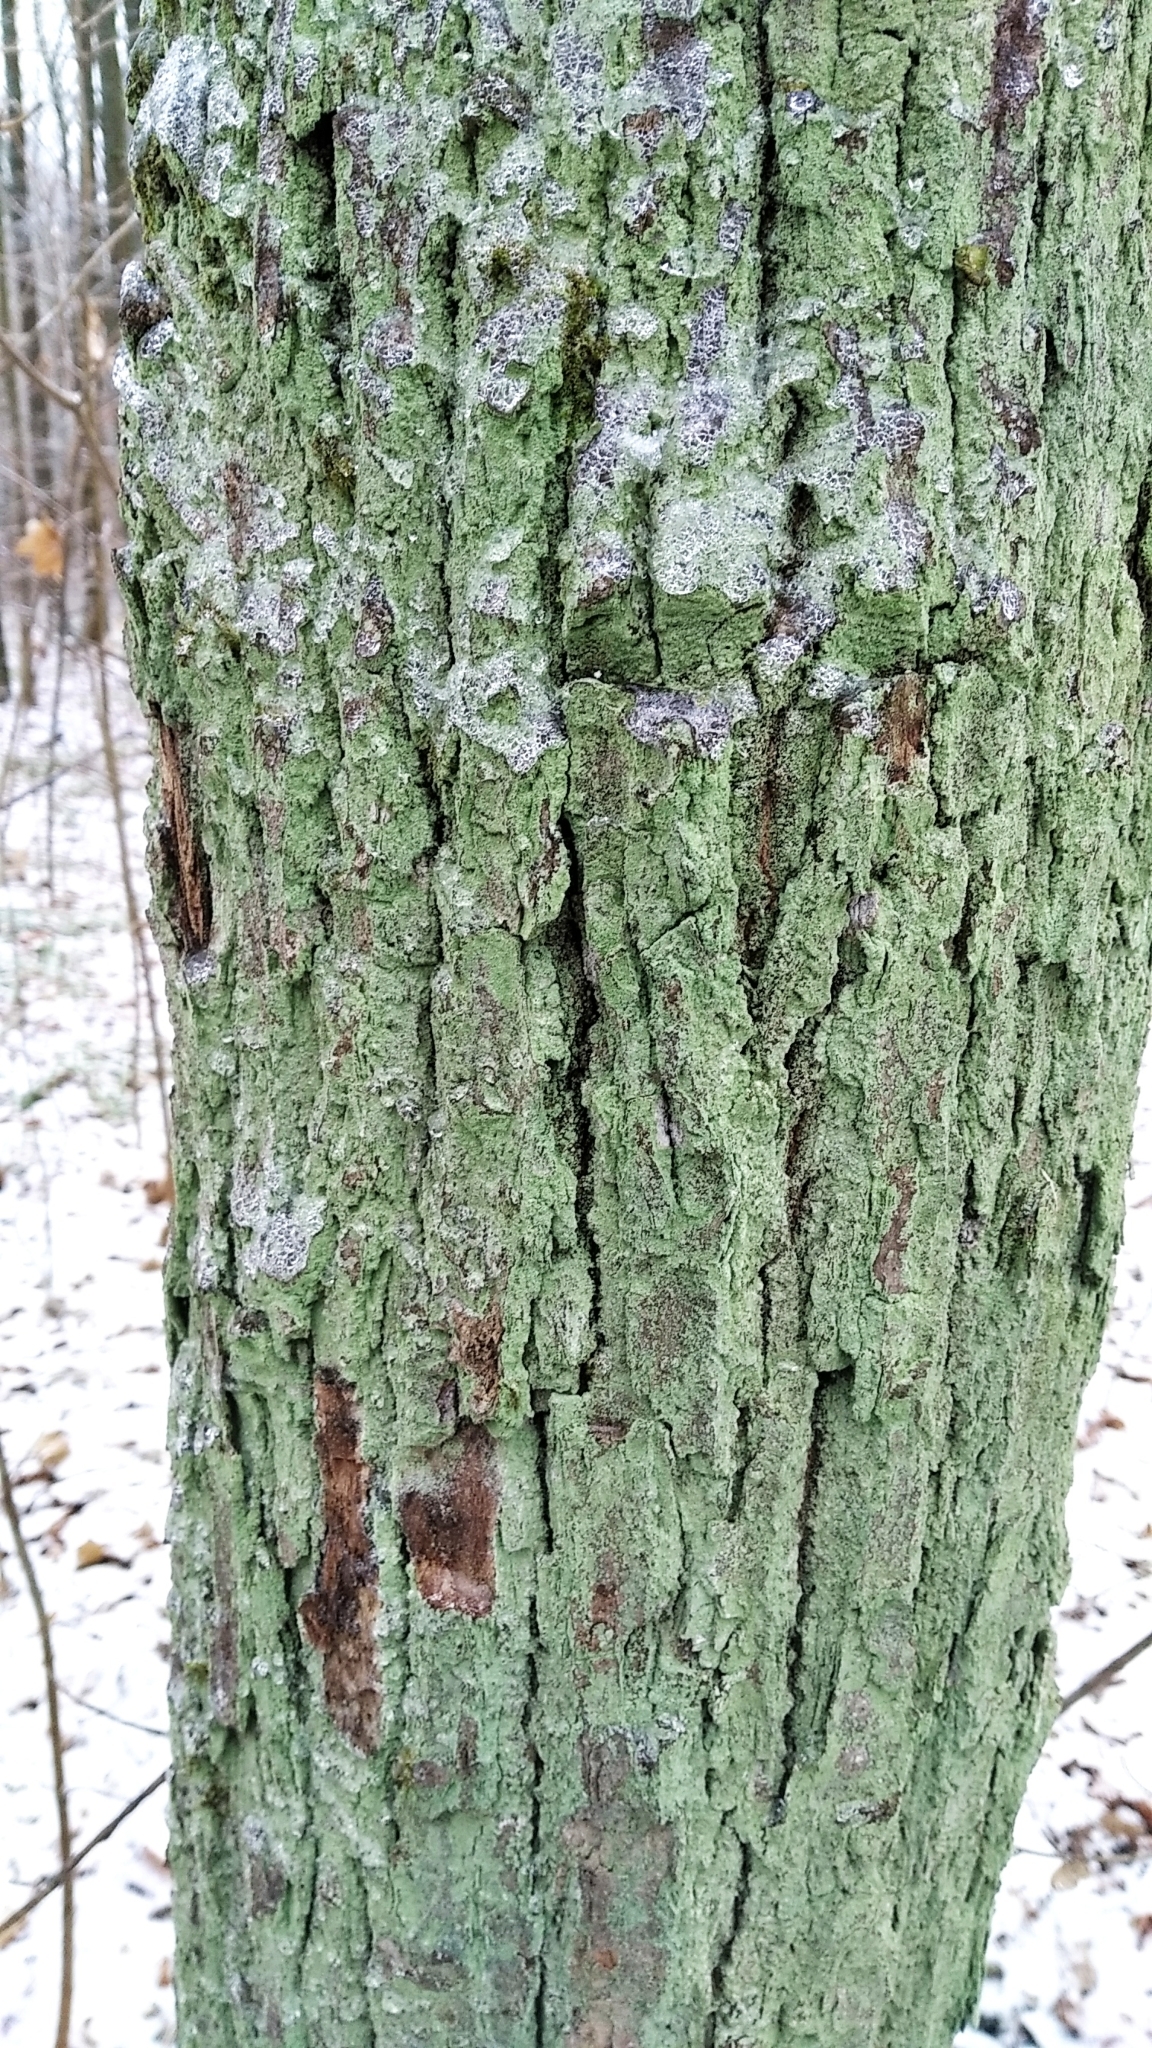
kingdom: Fungi
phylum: Ascomycota
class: Lecanoromycetes
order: Lecanorales
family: Stereocaulaceae
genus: Lepraria
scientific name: Lepraria
